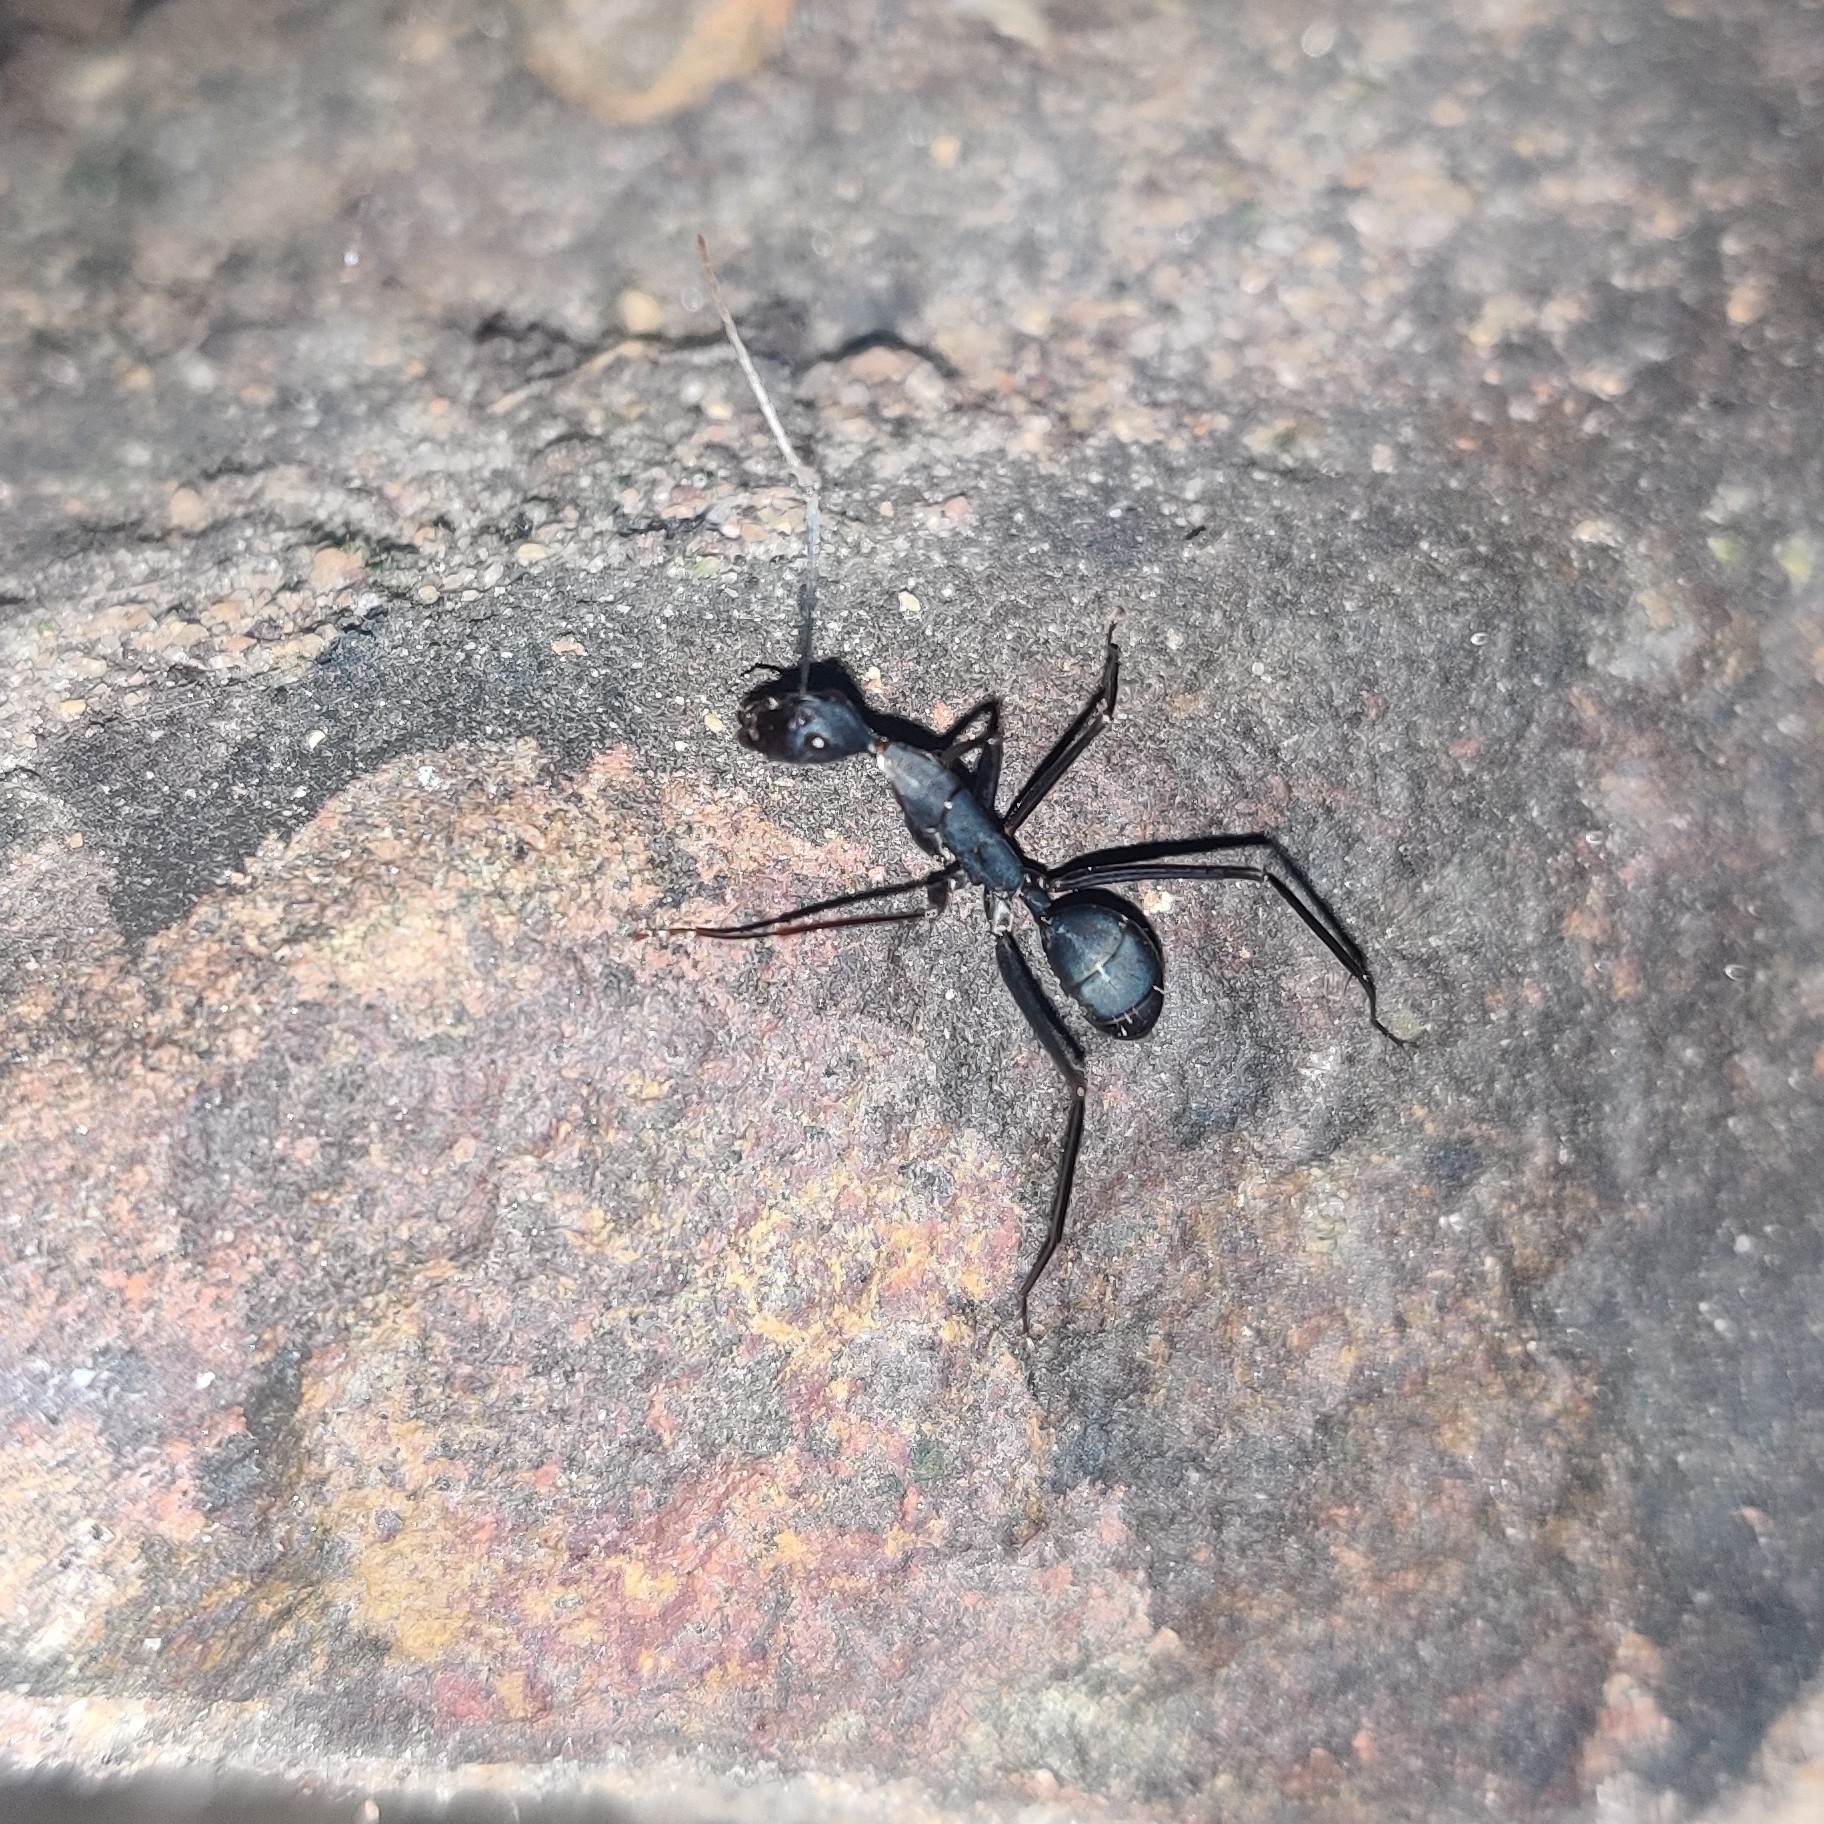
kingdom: Animalia
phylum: Arthropoda
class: Insecta
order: Hymenoptera
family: Formicidae
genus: Camponotus
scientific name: Camponotus angusticollis
